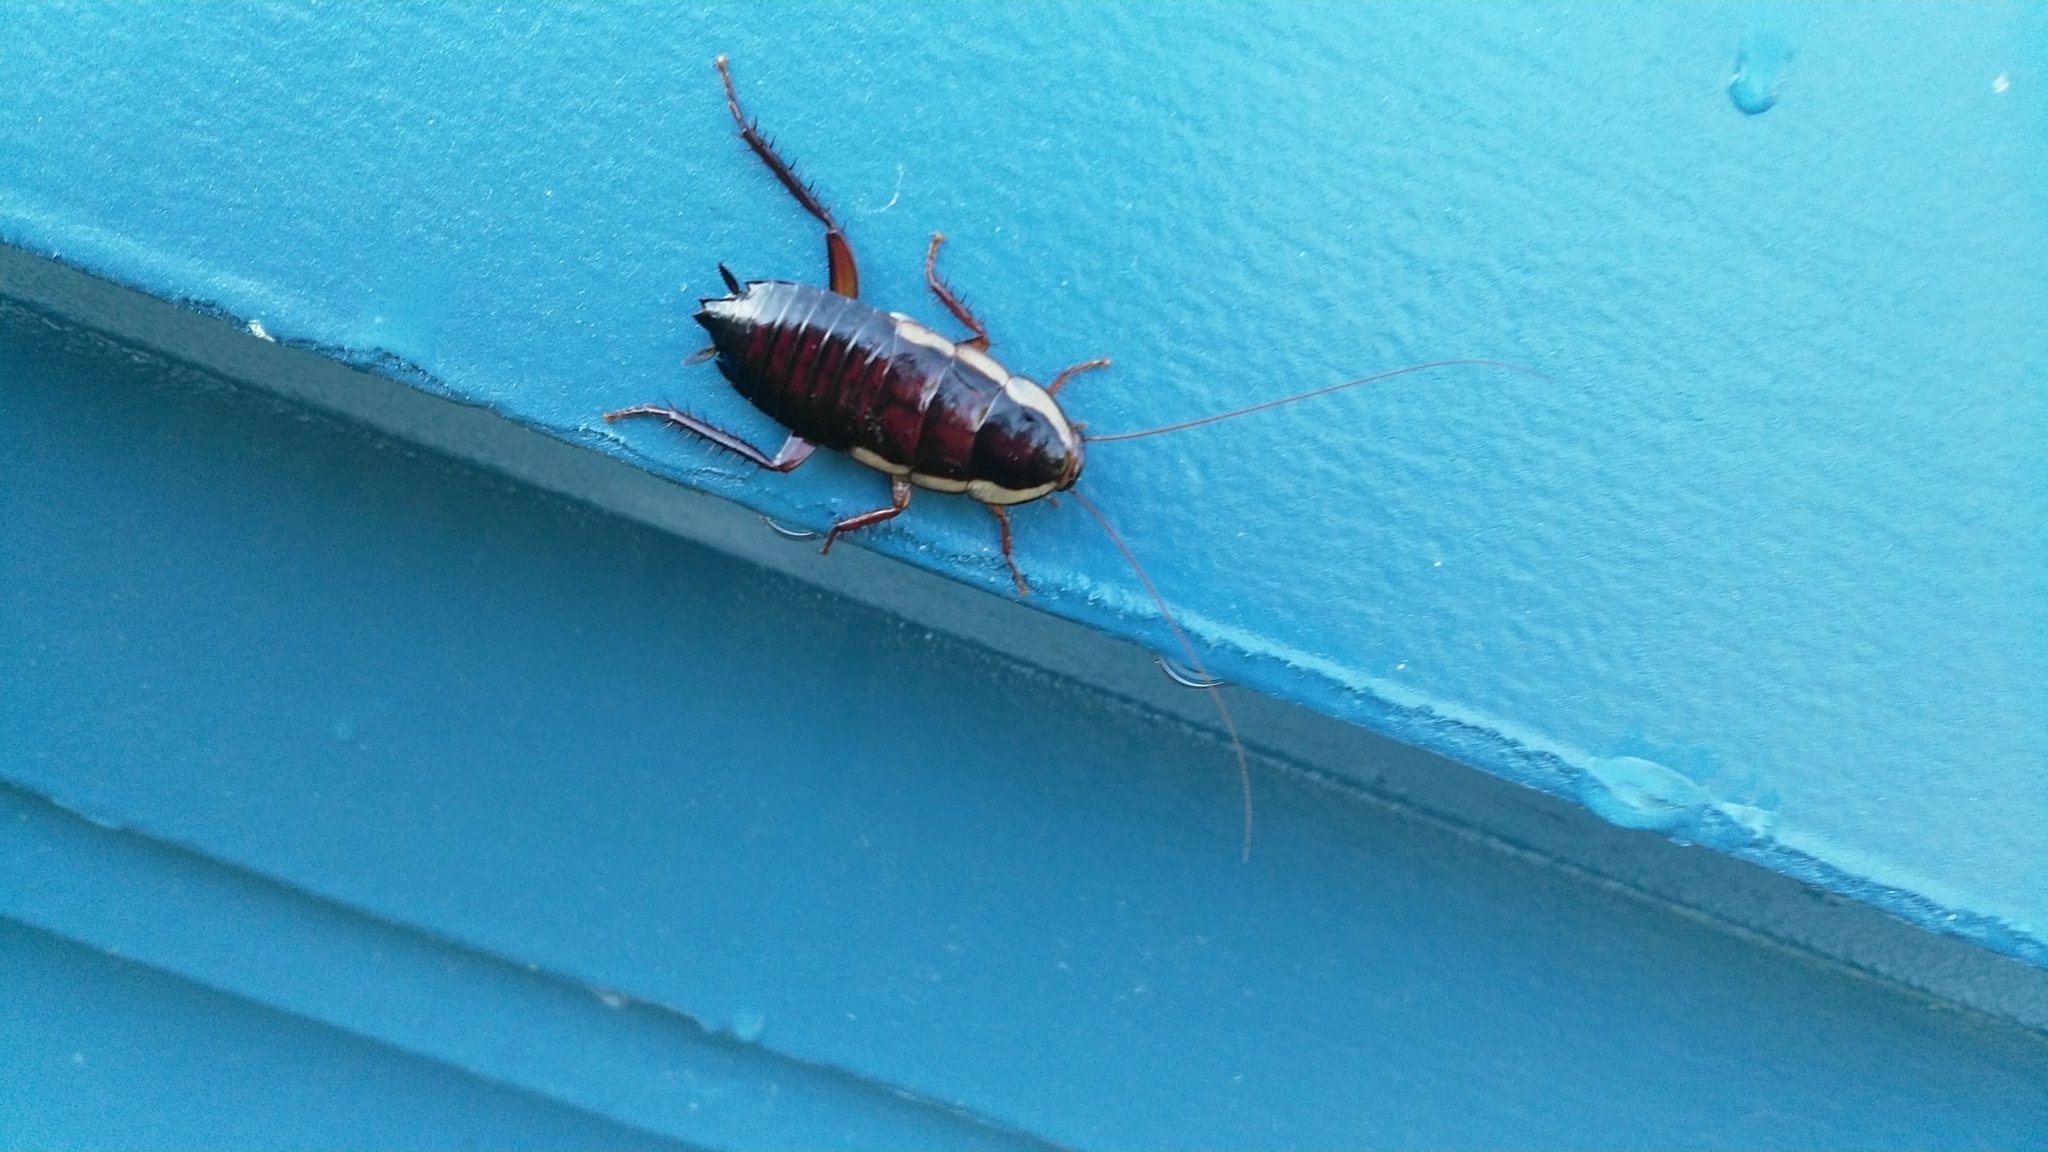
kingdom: Animalia
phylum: Arthropoda
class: Insecta
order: Blattodea
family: Blattidae
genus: Drymaplaneta
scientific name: Drymaplaneta semivitta
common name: Gisborne cockroach
